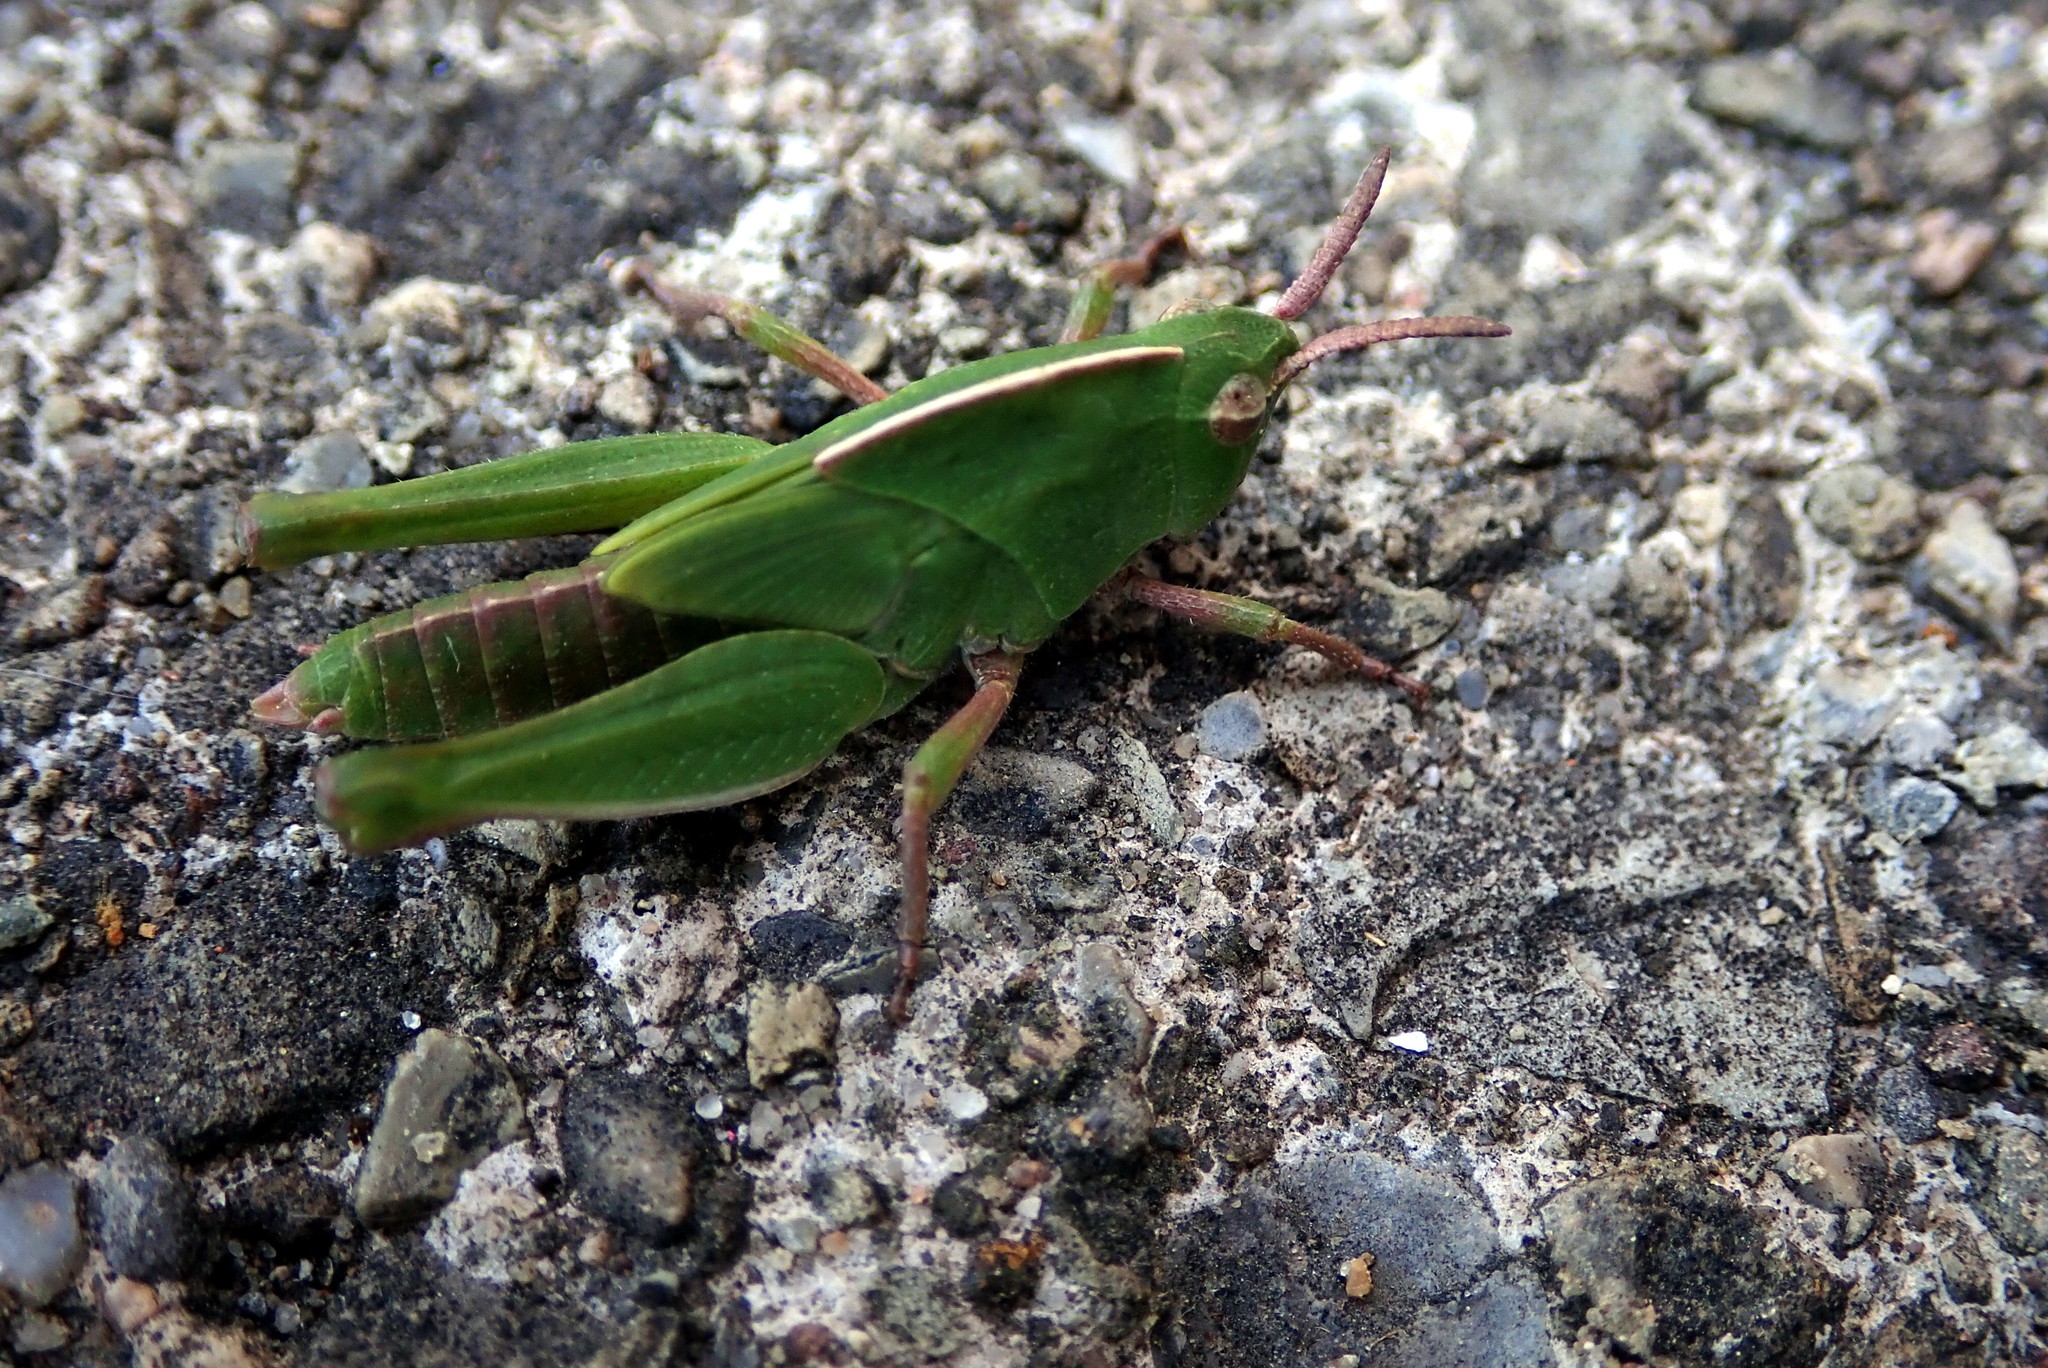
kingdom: Animalia
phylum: Arthropoda
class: Insecta
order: Orthoptera
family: Acrididae
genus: Chortophaga
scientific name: Chortophaga viridifasciata
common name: Green-striped grasshopper
